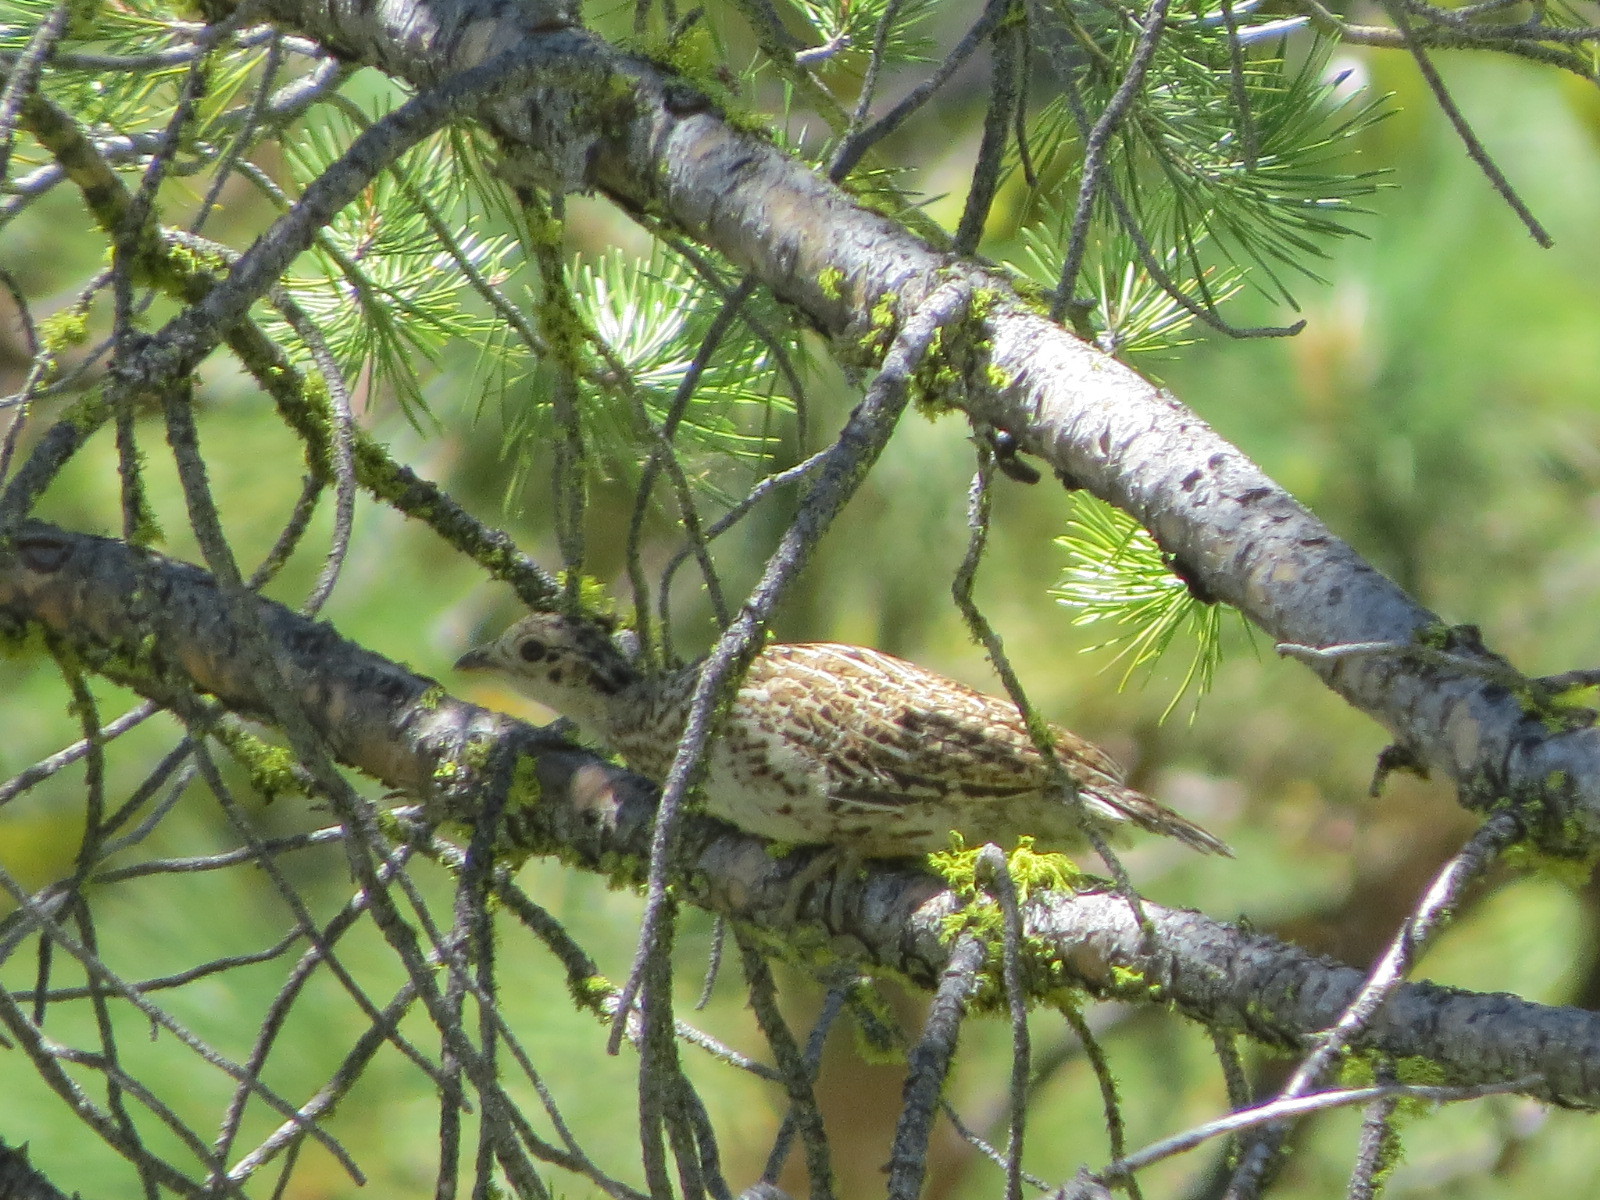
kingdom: Animalia
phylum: Chordata
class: Aves
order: Galliformes
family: Phasianidae
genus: Dendragapus
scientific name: Dendragapus fuliginosus
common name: Sooty grouse
